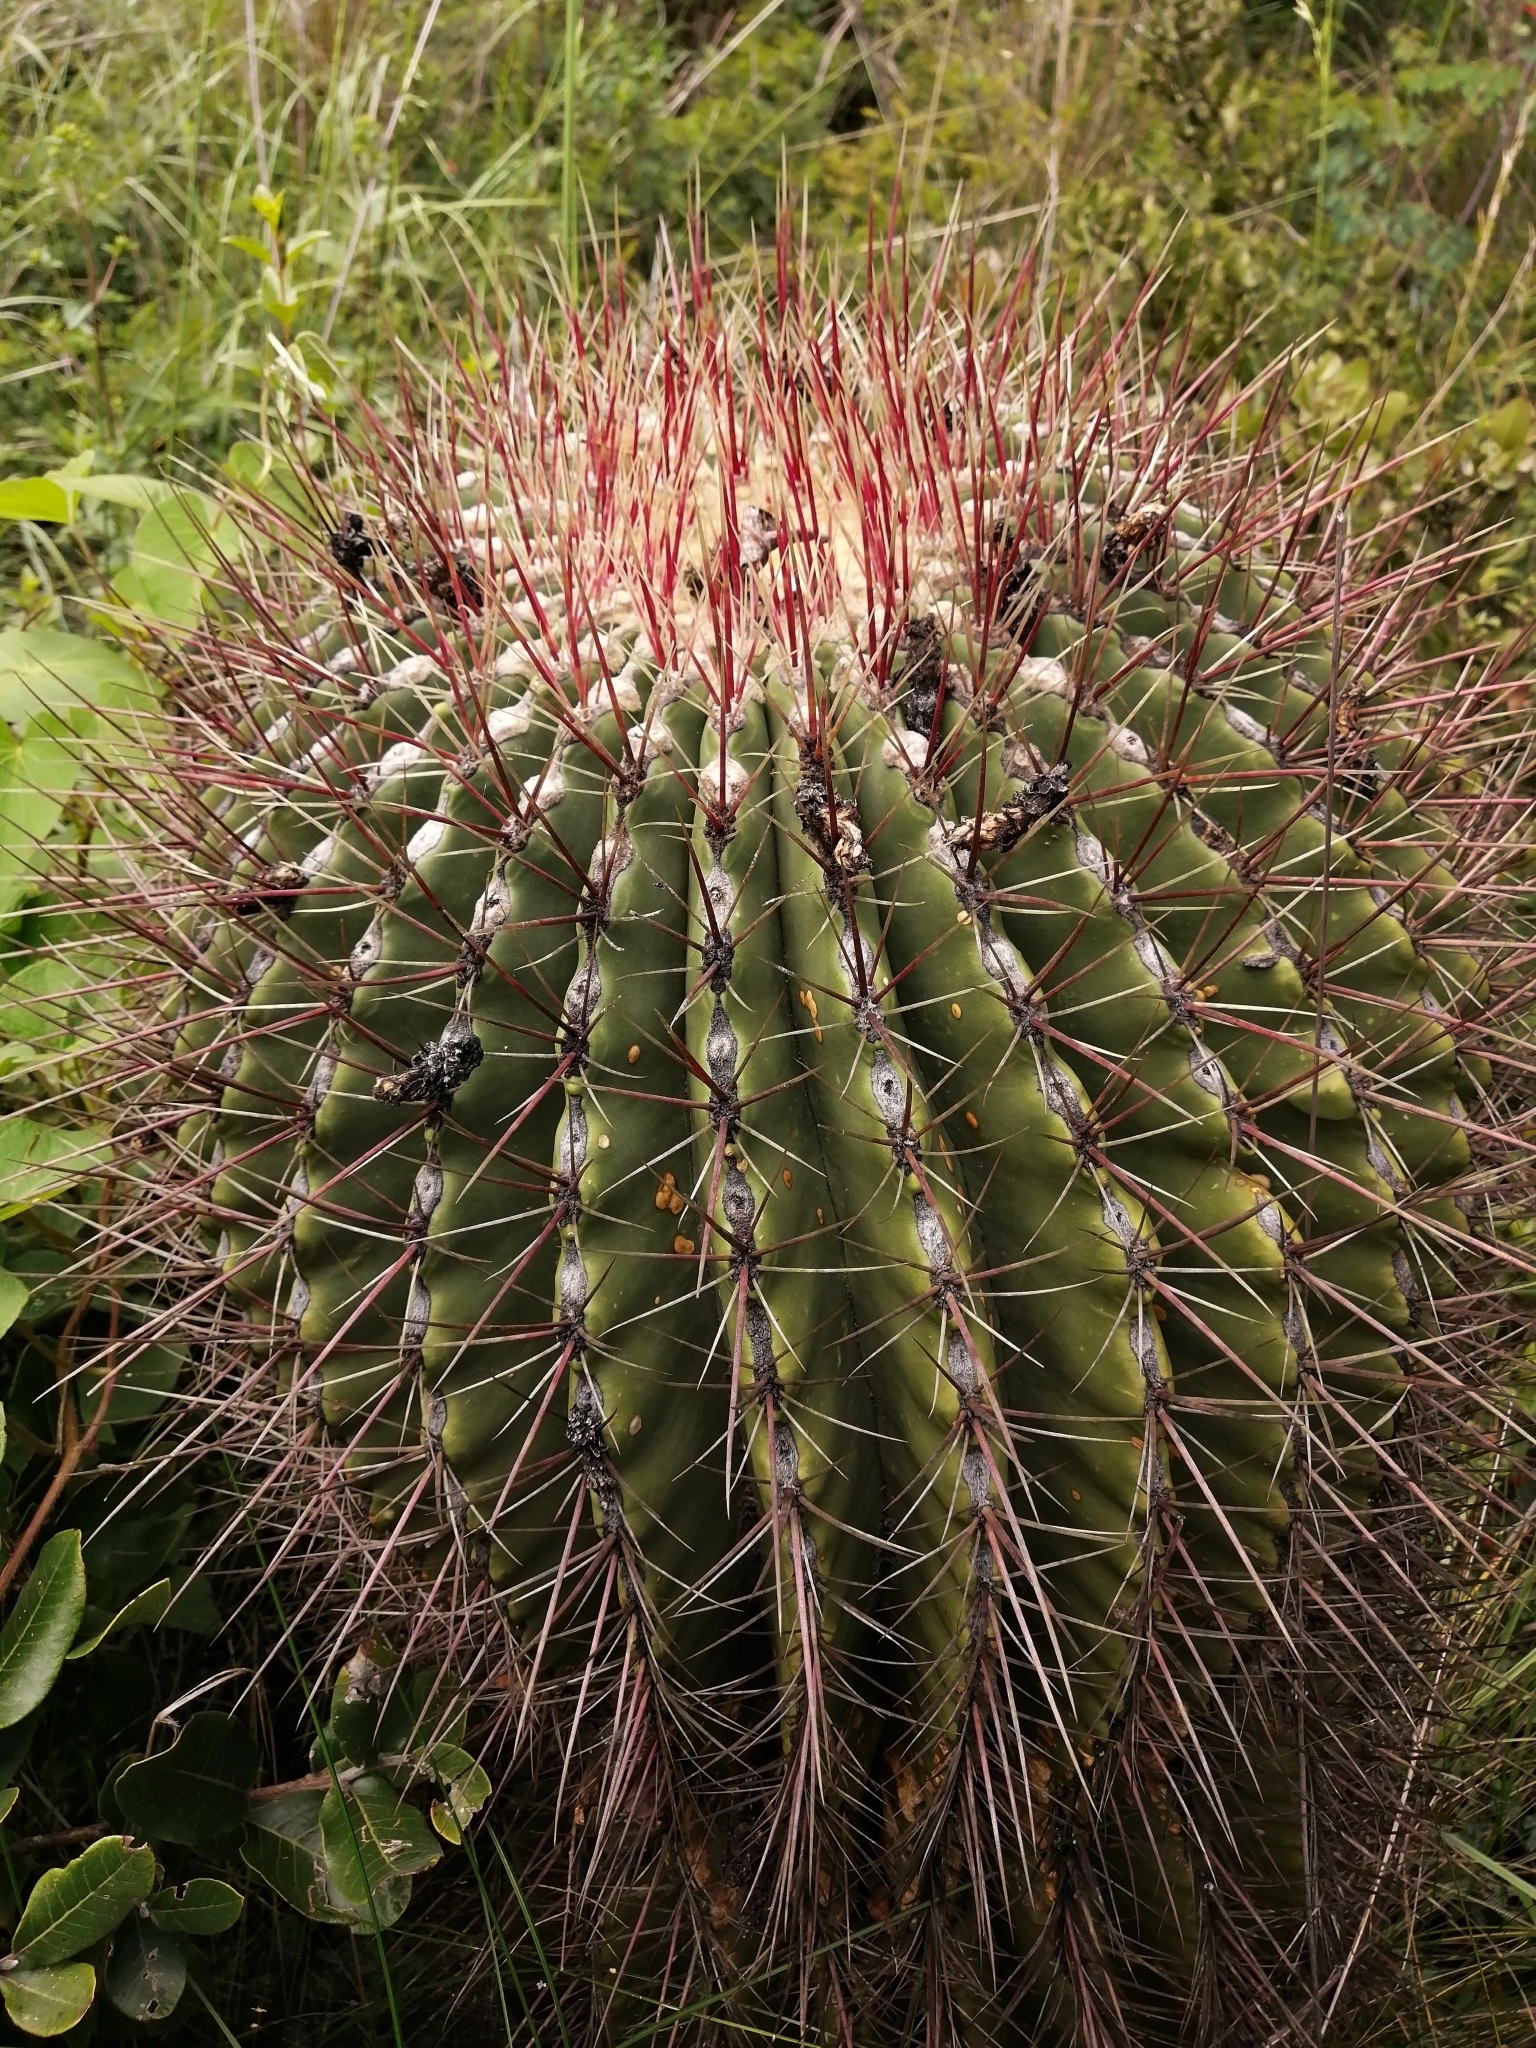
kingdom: Plantae
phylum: Tracheophyta
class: Magnoliopsida
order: Caryophyllales
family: Cactaceae
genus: Ferocactus
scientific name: Ferocactus haematacanthus
